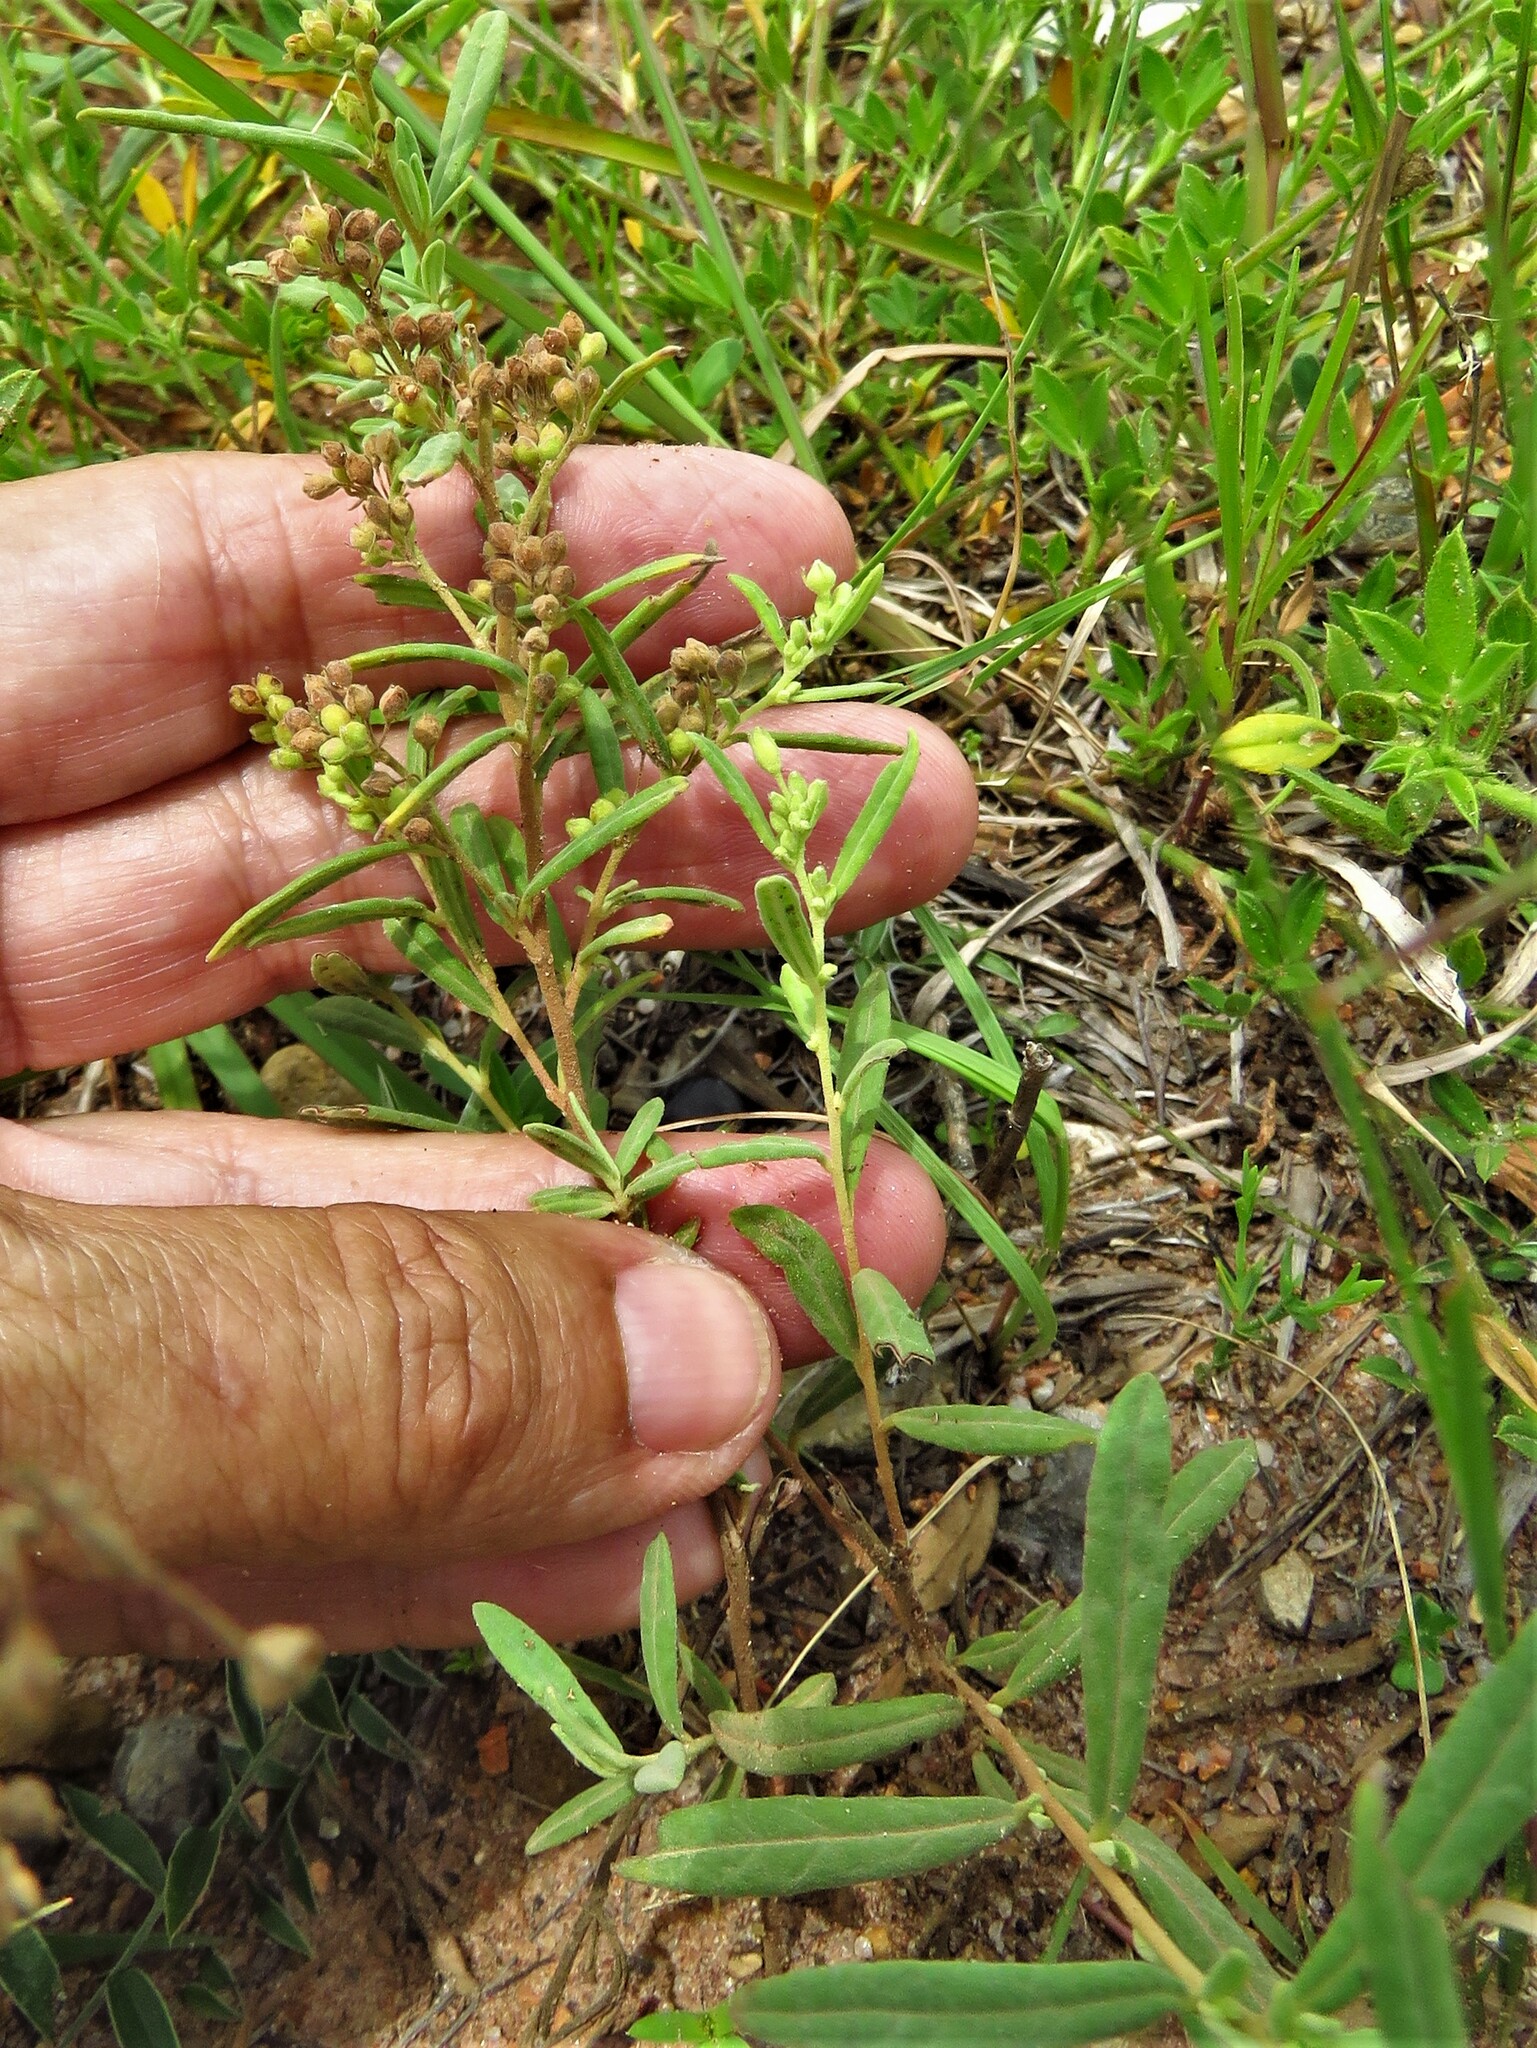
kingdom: Plantae
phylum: Tracheophyta
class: Magnoliopsida
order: Malvales
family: Cistaceae
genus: Crocanthemum
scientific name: Crocanthemum rosmarinifolium
